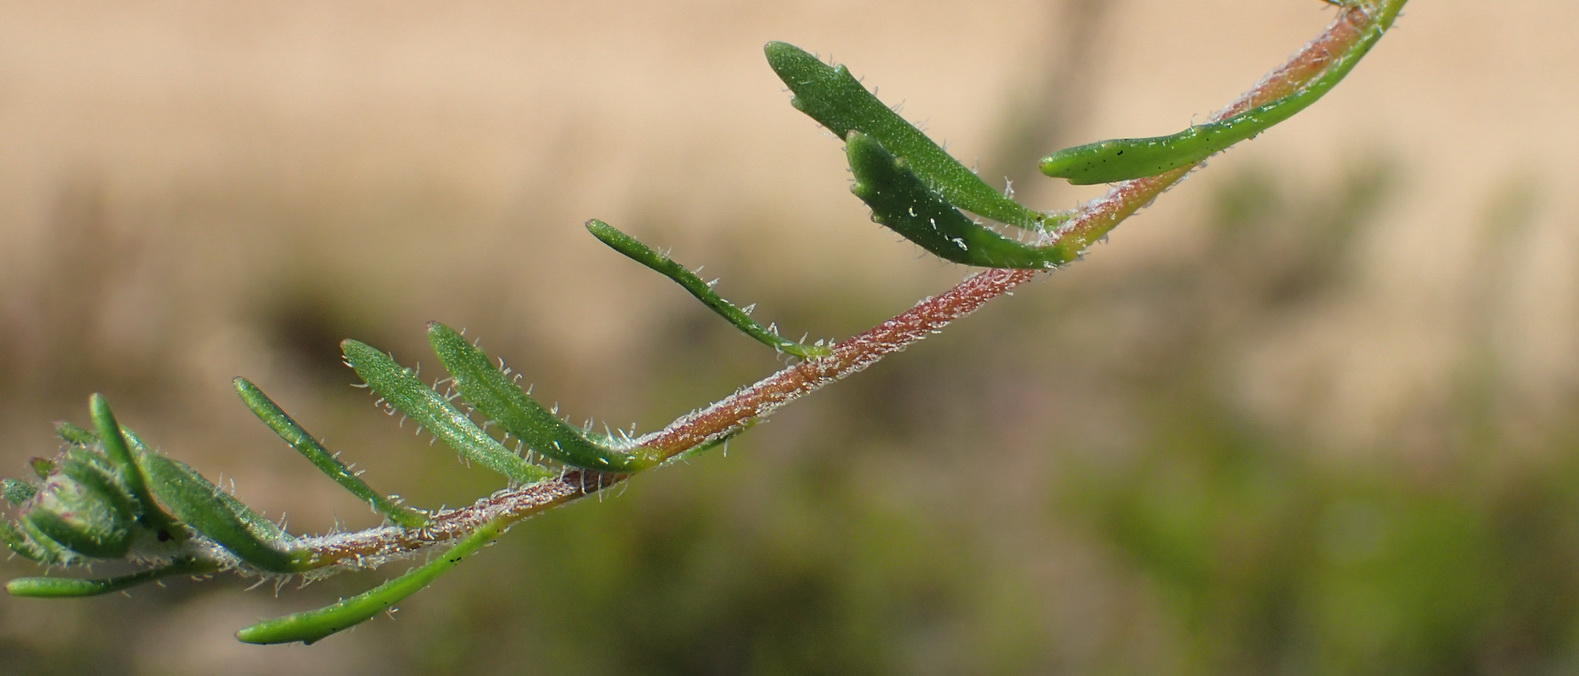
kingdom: Plantae
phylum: Tracheophyta
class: Magnoliopsida
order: Lamiales
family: Scrophulariaceae
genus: Pseudoselago
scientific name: Pseudoselago bella
